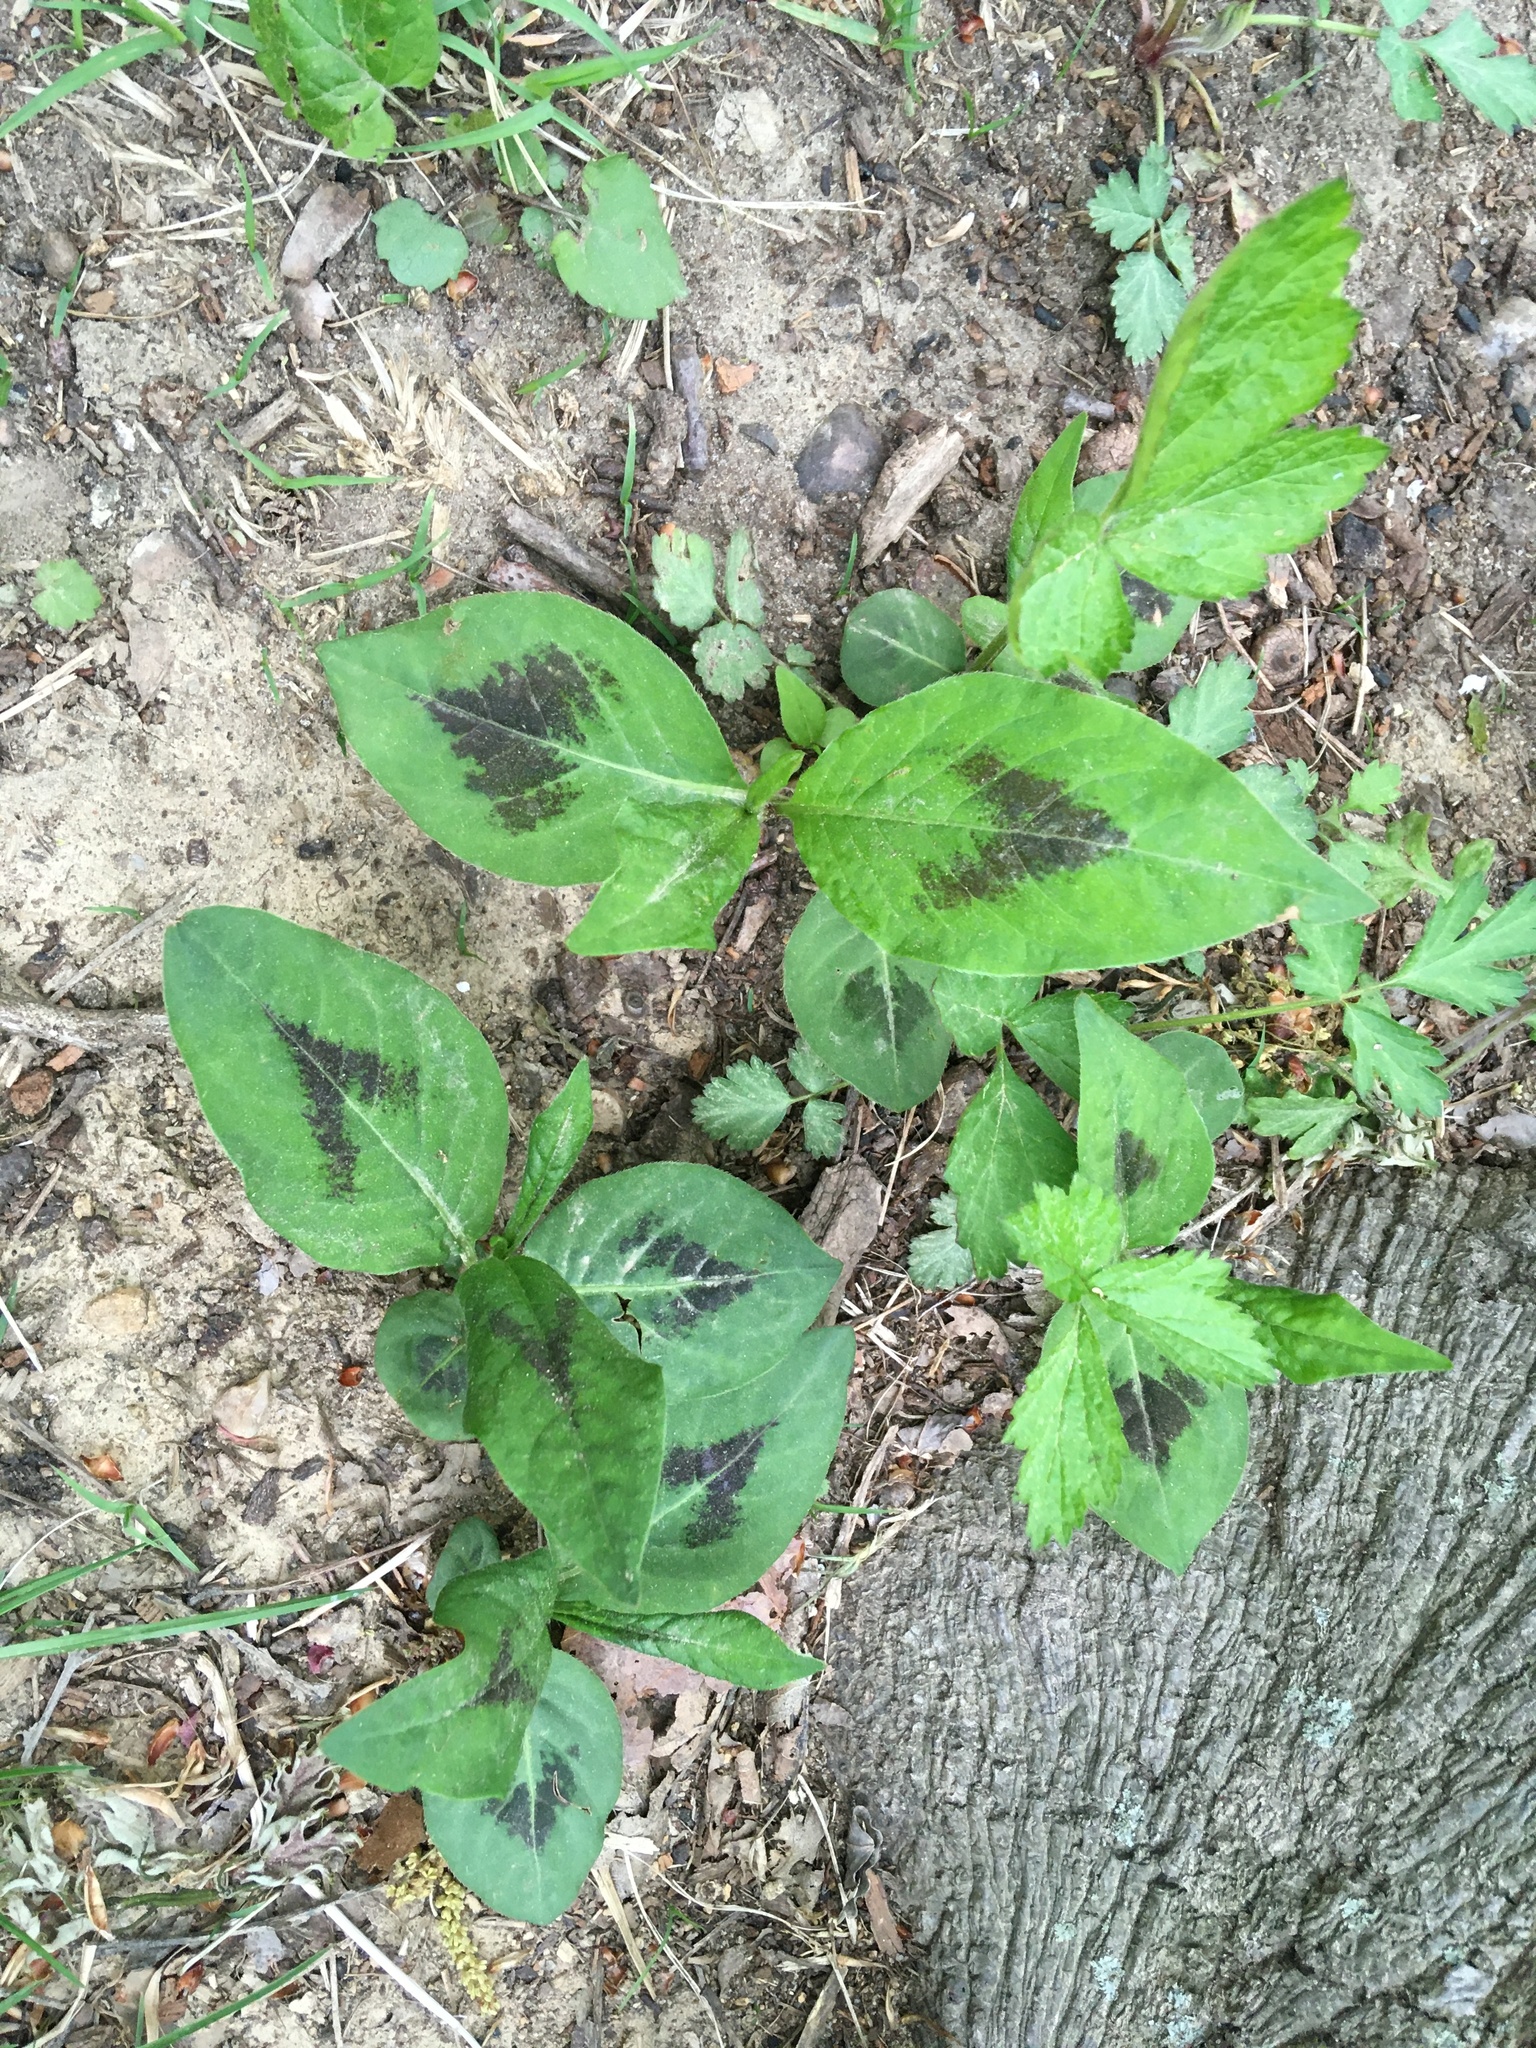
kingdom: Plantae
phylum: Tracheophyta
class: Magnoliopsida
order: Caryophyllales
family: Polygonaceae
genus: Persicaria
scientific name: Persicaria virginiana
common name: Jumpseed
